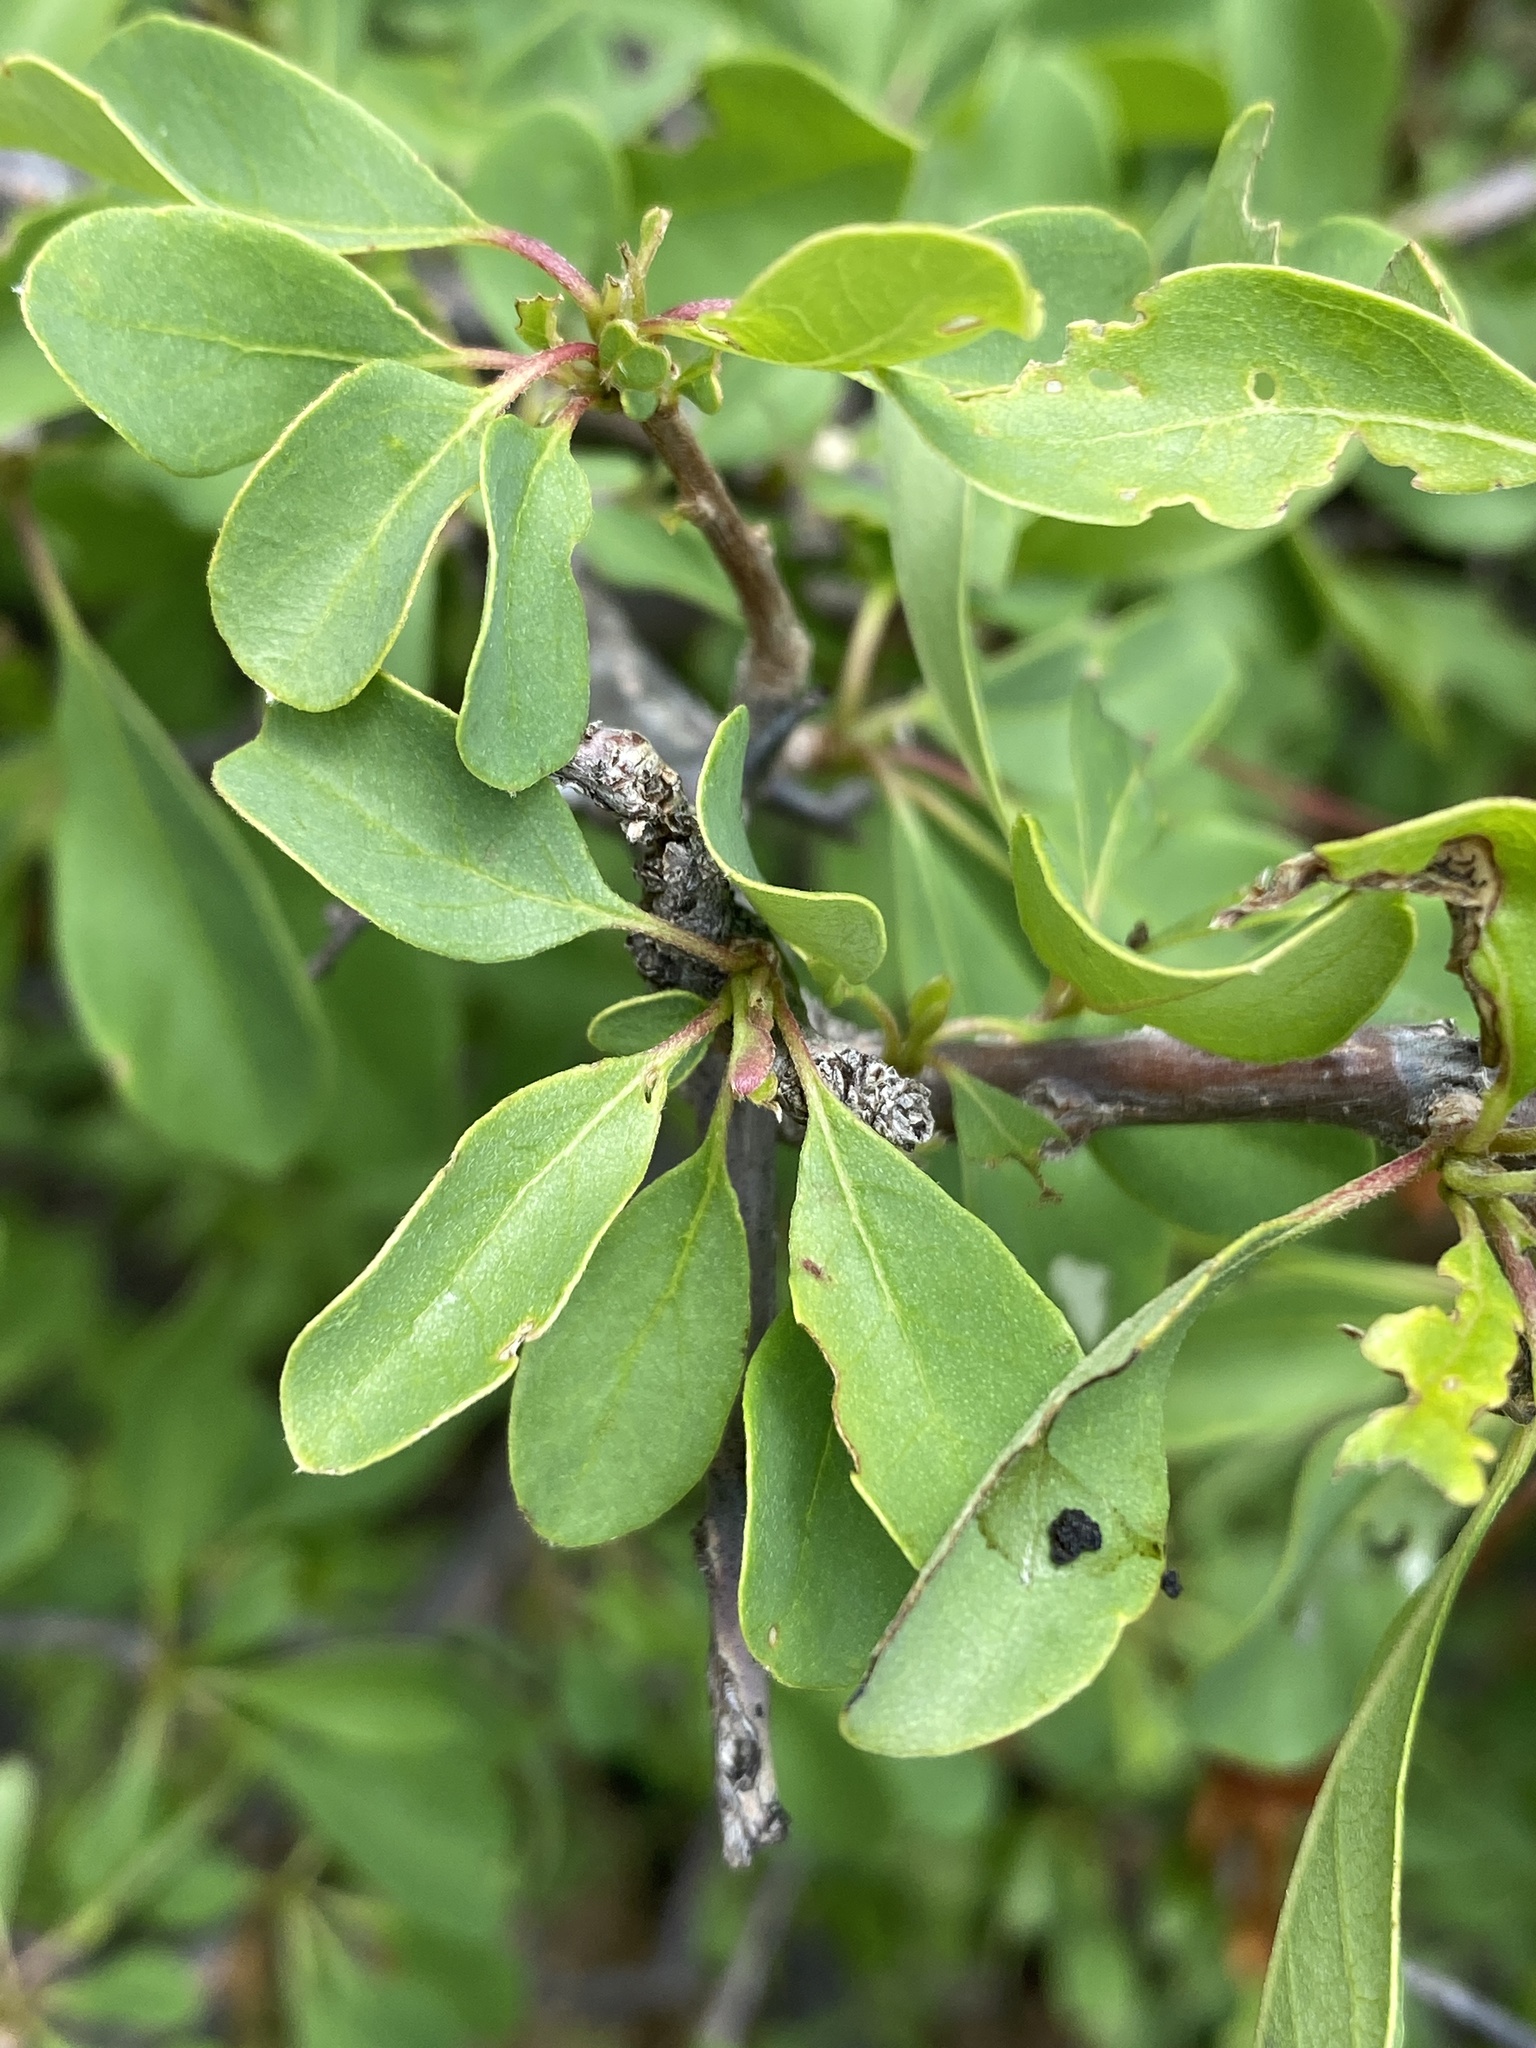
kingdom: Plantae
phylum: Tracheophyta
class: Magnoliopsida
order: Myrtales
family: Combretaceae
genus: Terminalia
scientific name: Terminalia prunioides
